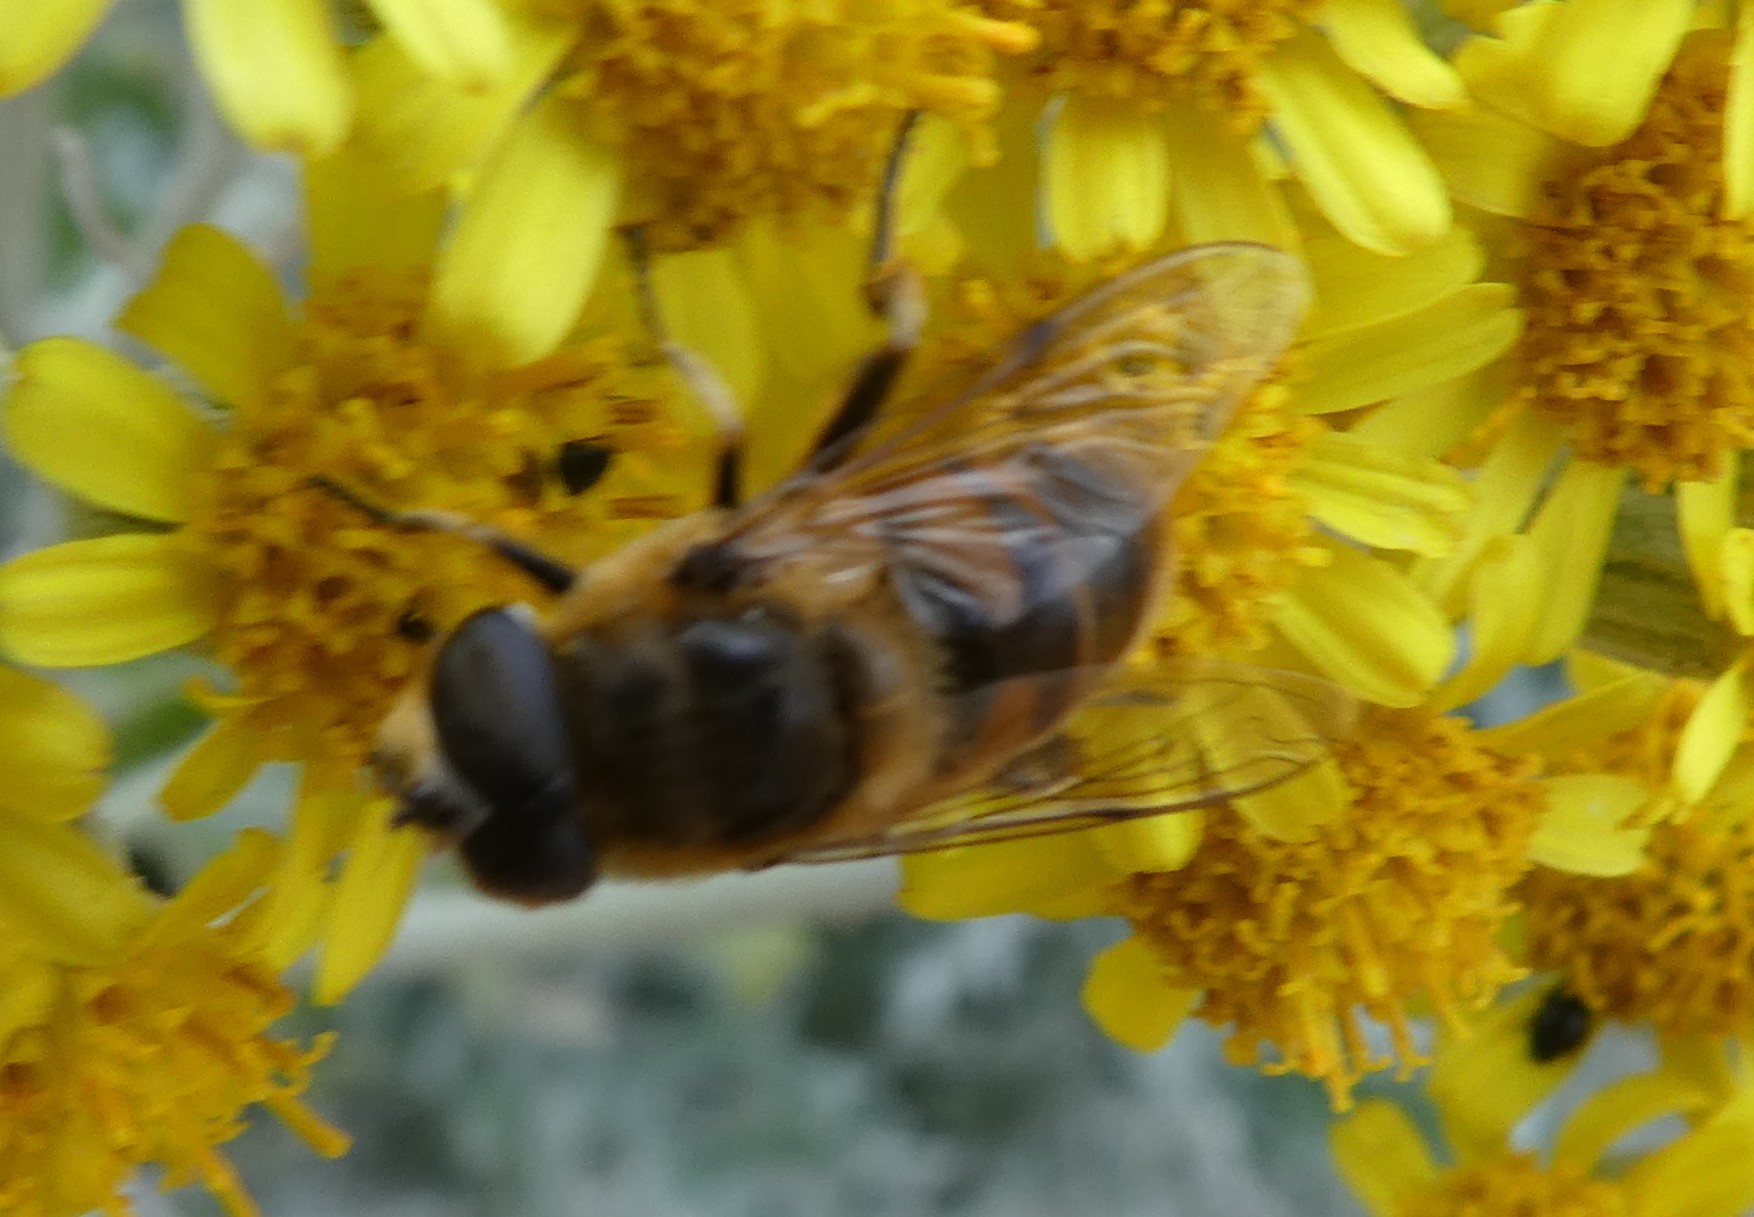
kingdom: Animalia
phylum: Arthropoda
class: Insecta
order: Diptera
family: Syrphidae
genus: Eristalis
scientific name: Eristalis tenax
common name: Drone fly
